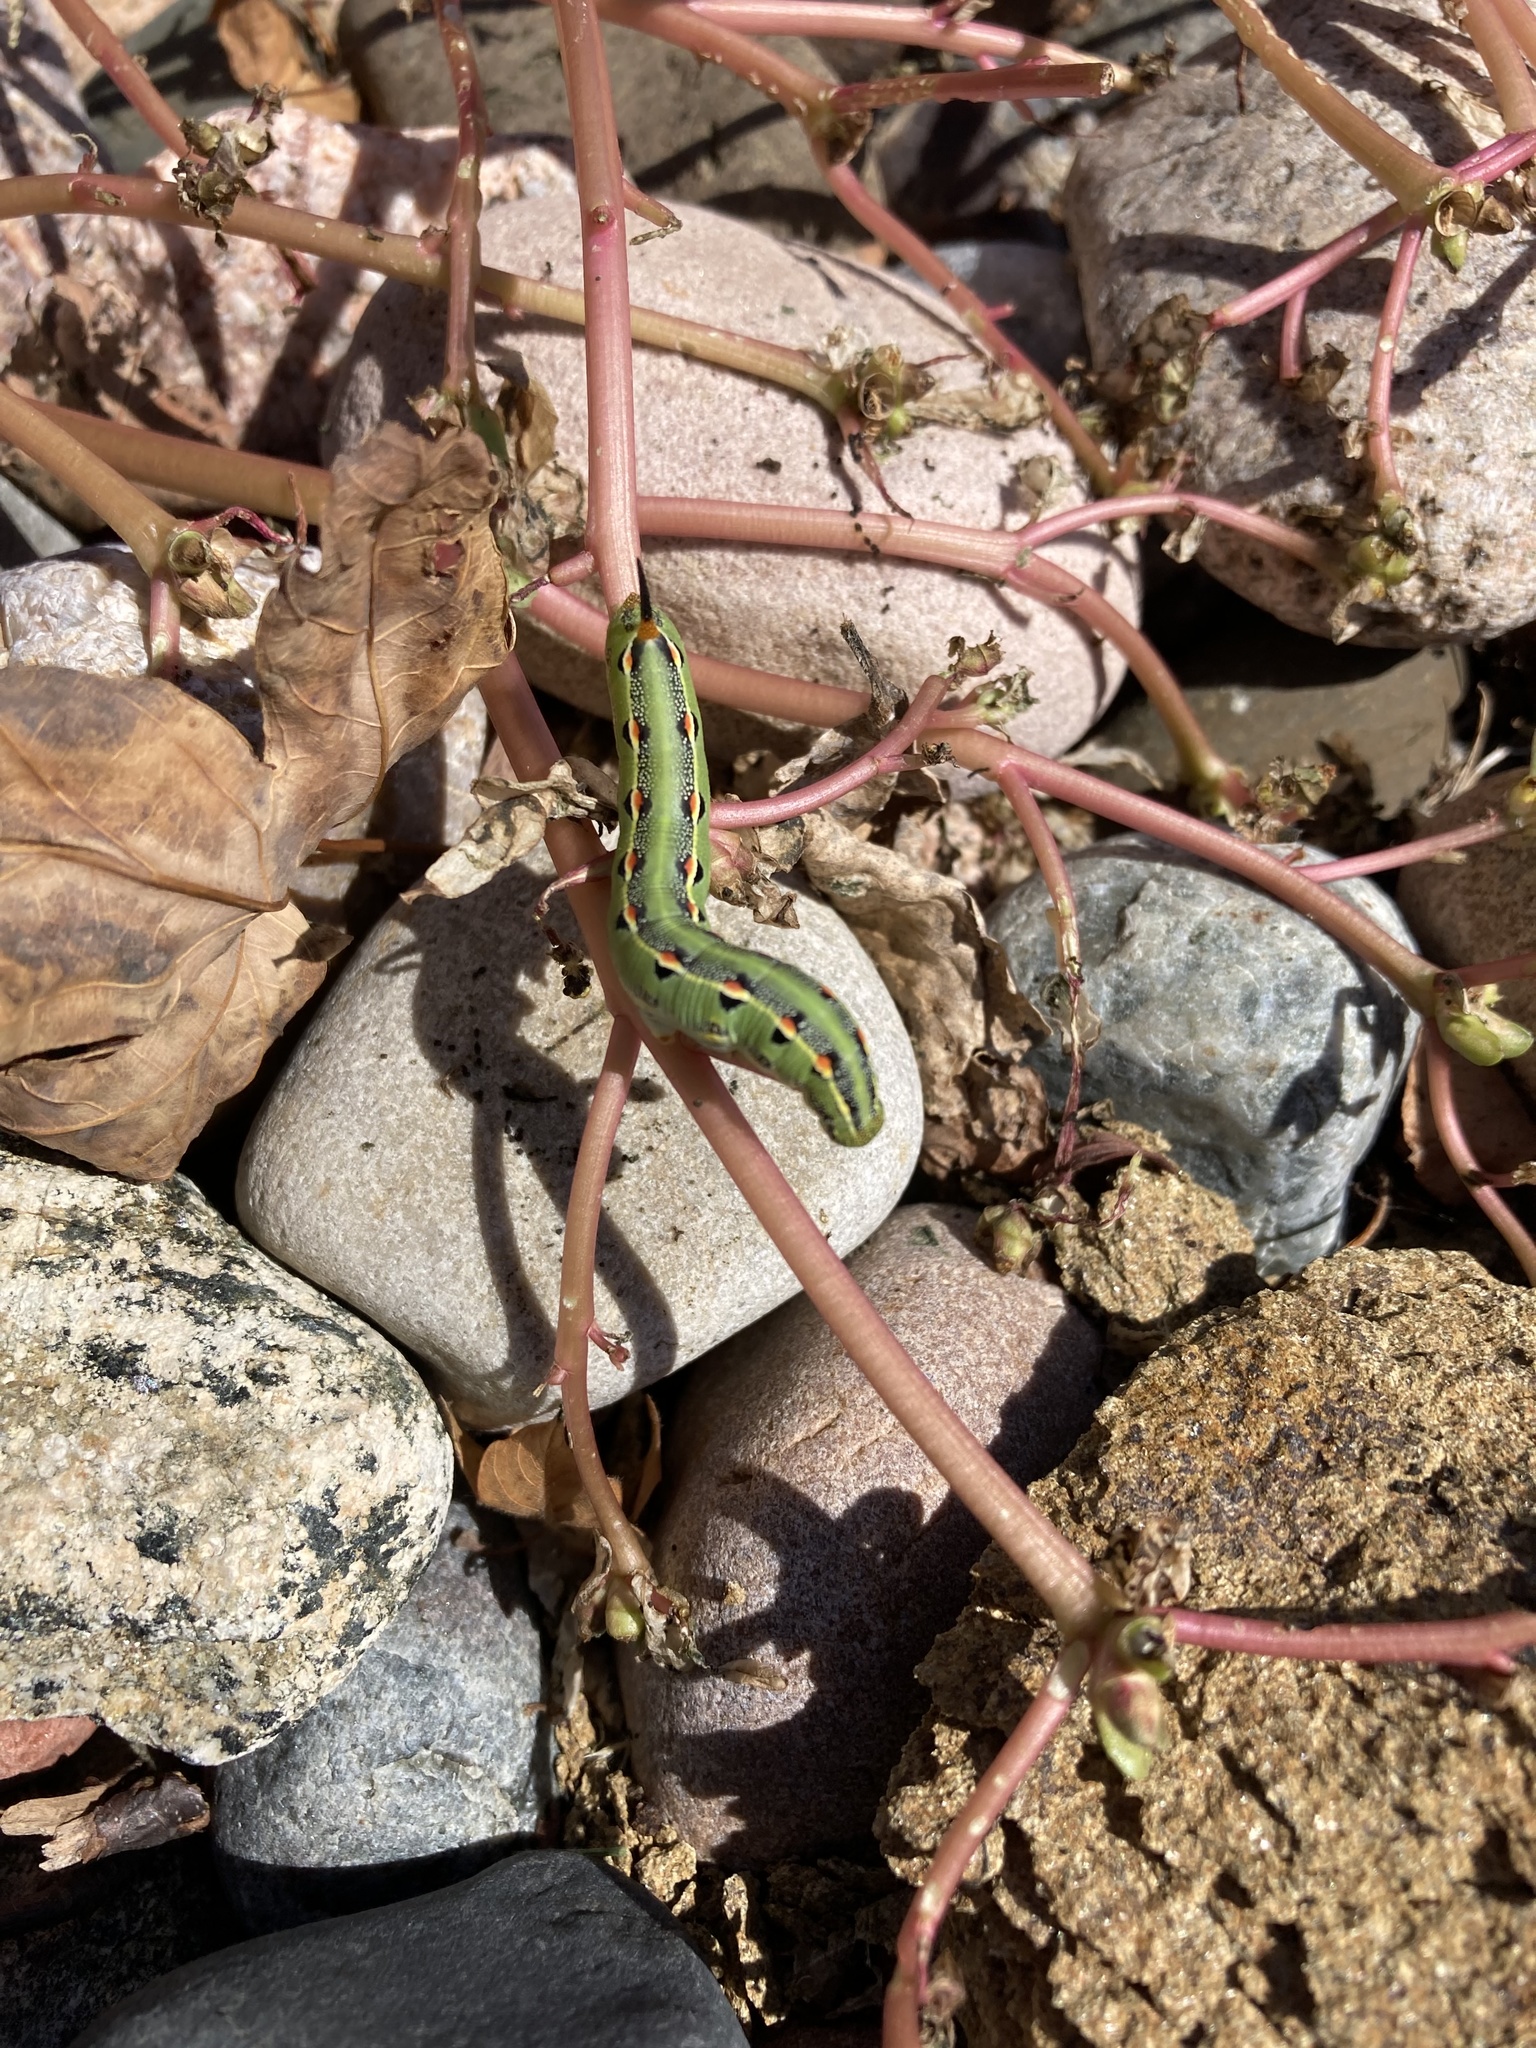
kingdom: Animalia
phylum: Arthropoda
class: Insecta
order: Lepidoptera
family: Sphingidae
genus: Hyles
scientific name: Hyles lineata
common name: White-lined sphinx
